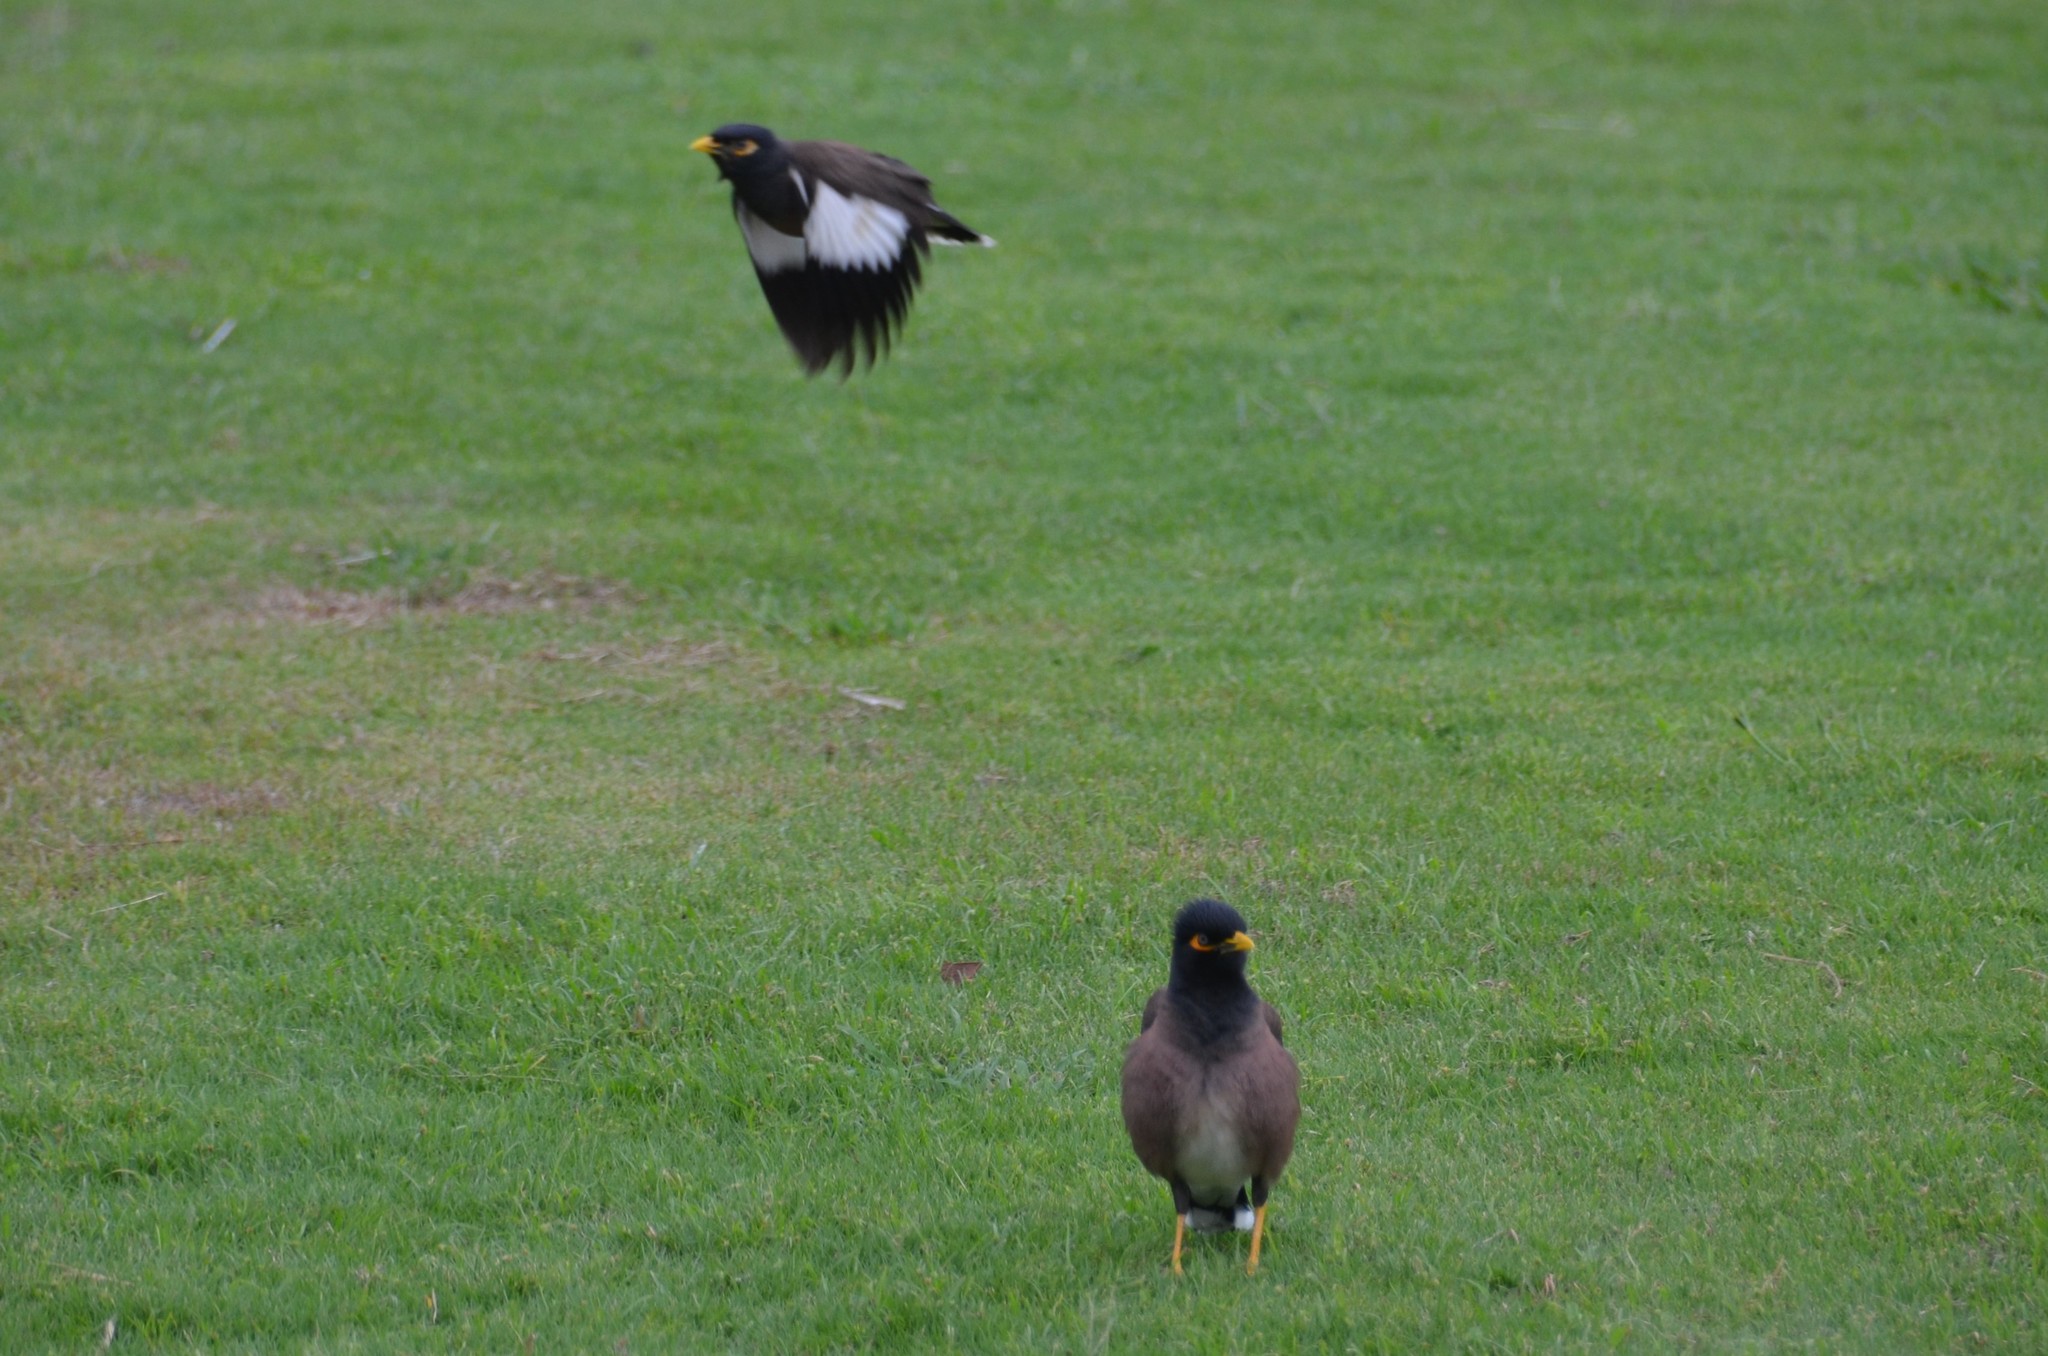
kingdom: Animalia
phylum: Chordata
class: Aves
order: Passeriformes
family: Sturnidae
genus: Acridotheres
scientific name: Acridotheres tristis
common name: Common myna
